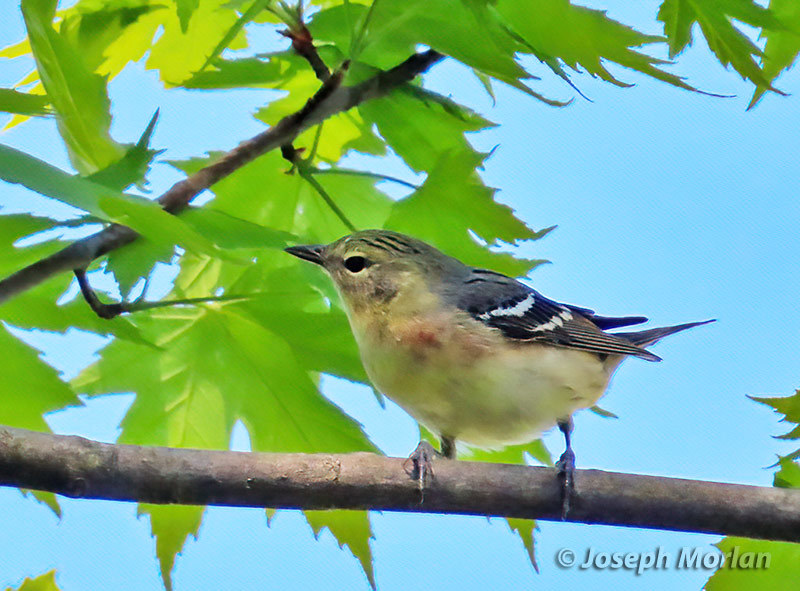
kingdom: Animalia
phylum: Chordata
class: Aves
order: Passeriformes
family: Parulidae
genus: Setophaga
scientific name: Setophaga castanea
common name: Bay-breasted warbler
